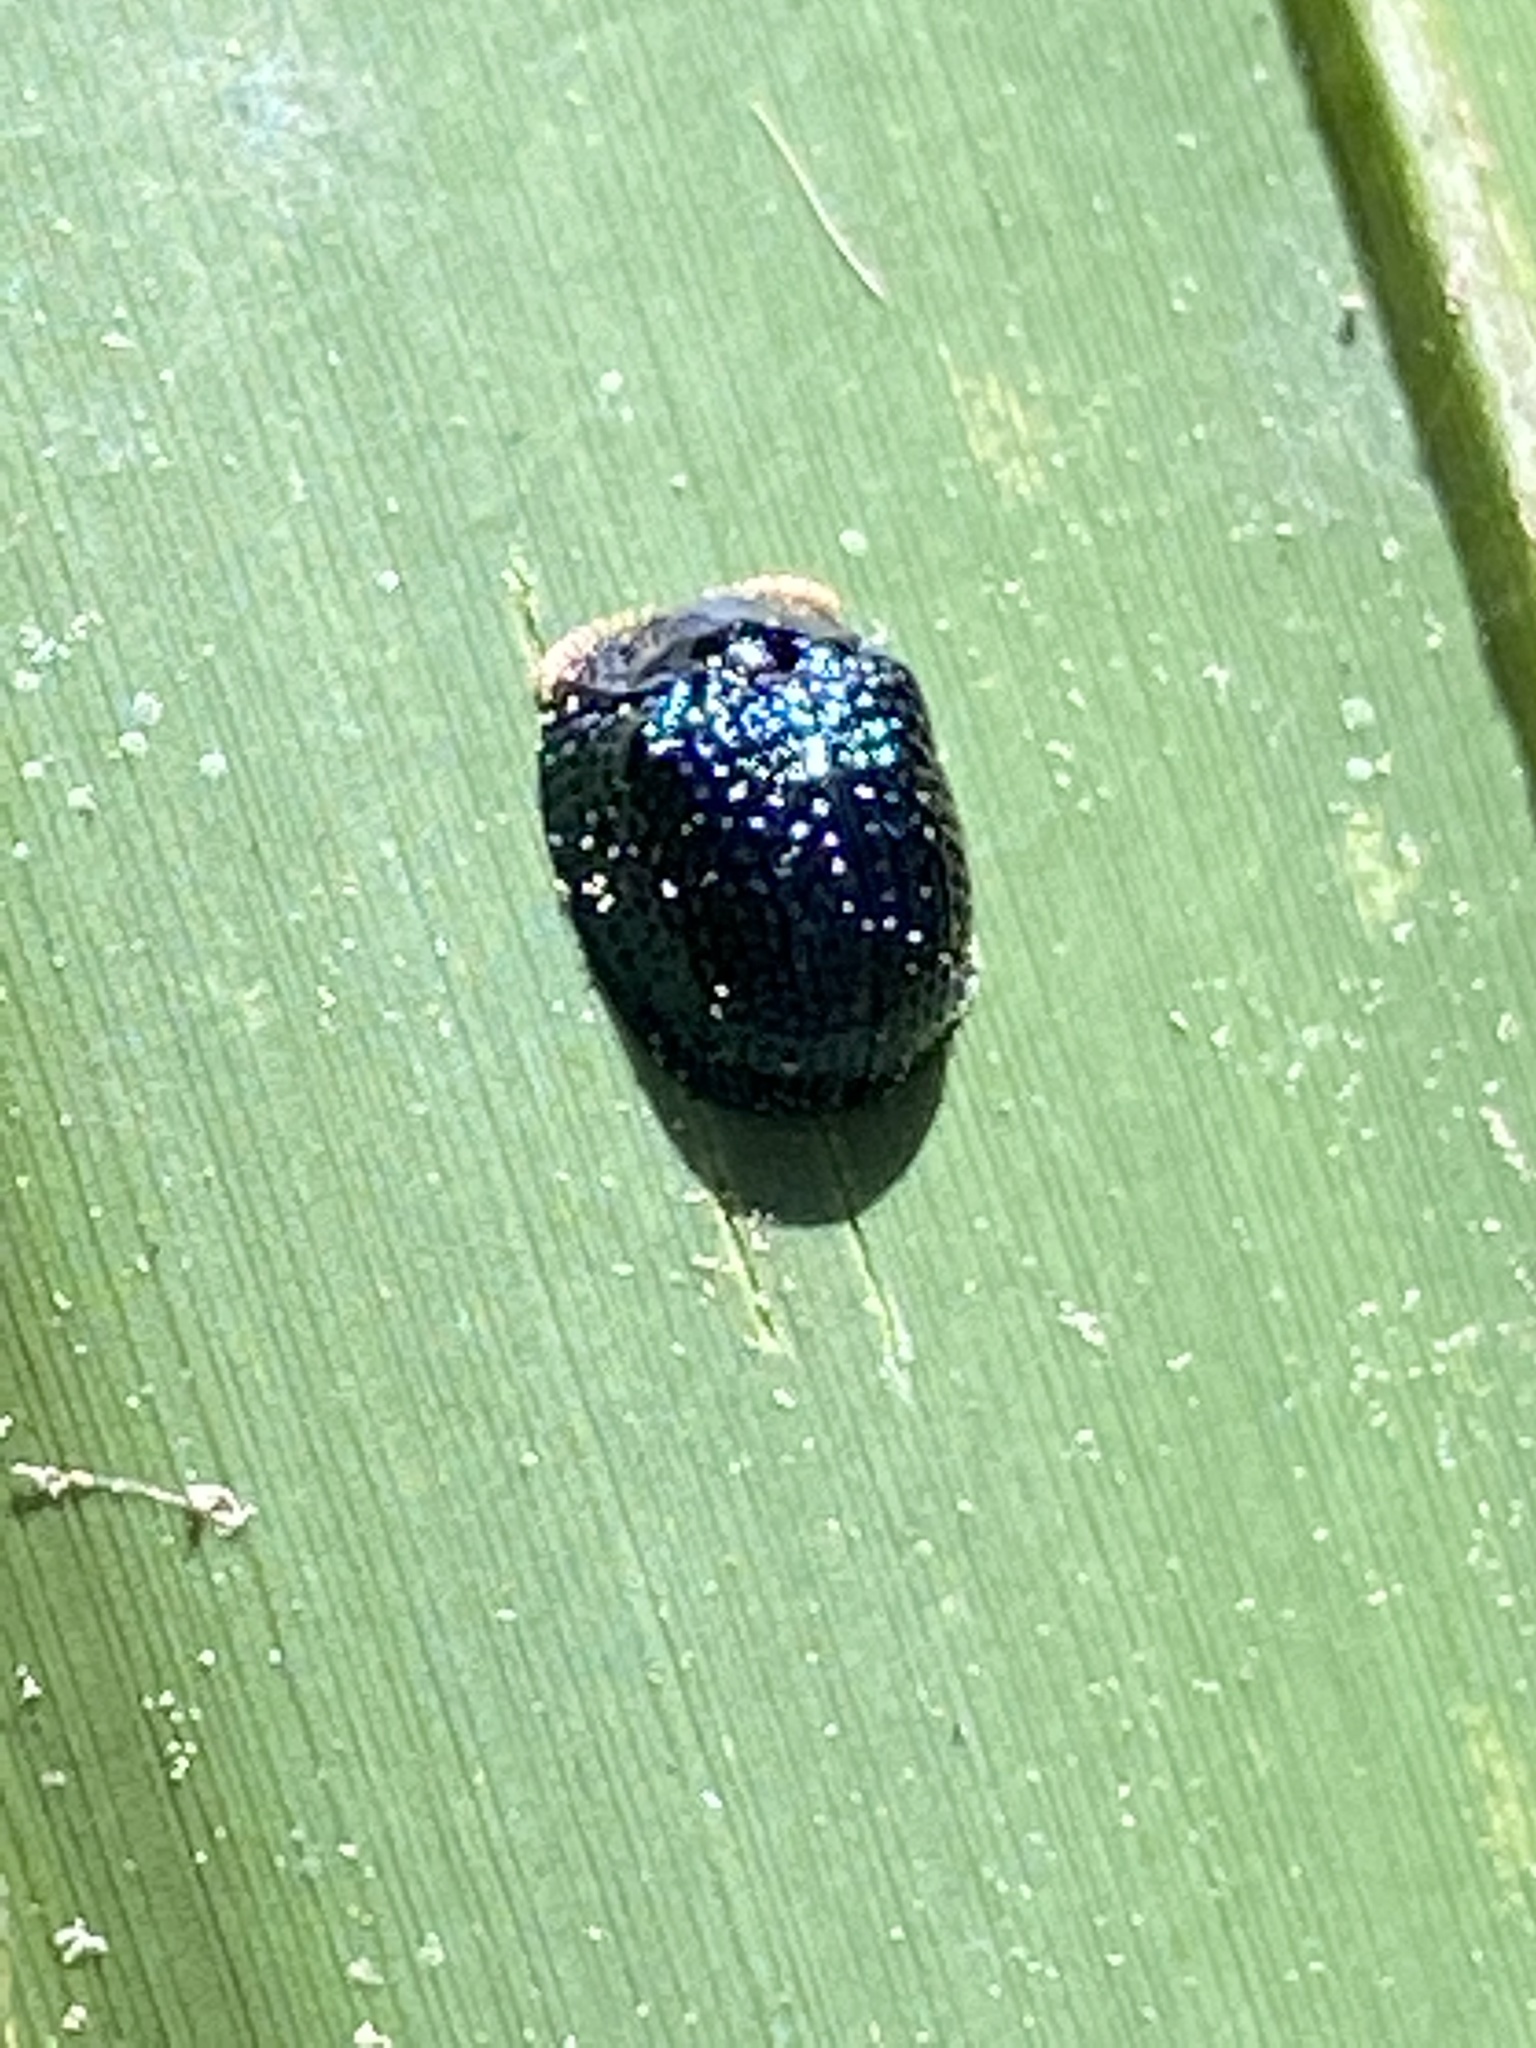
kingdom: Animalia
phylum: Arthropoda
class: Insecta
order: Coleoptera
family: Chrysomelidae
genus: Hemisphaerota
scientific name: Hemisphaerota cyanea
